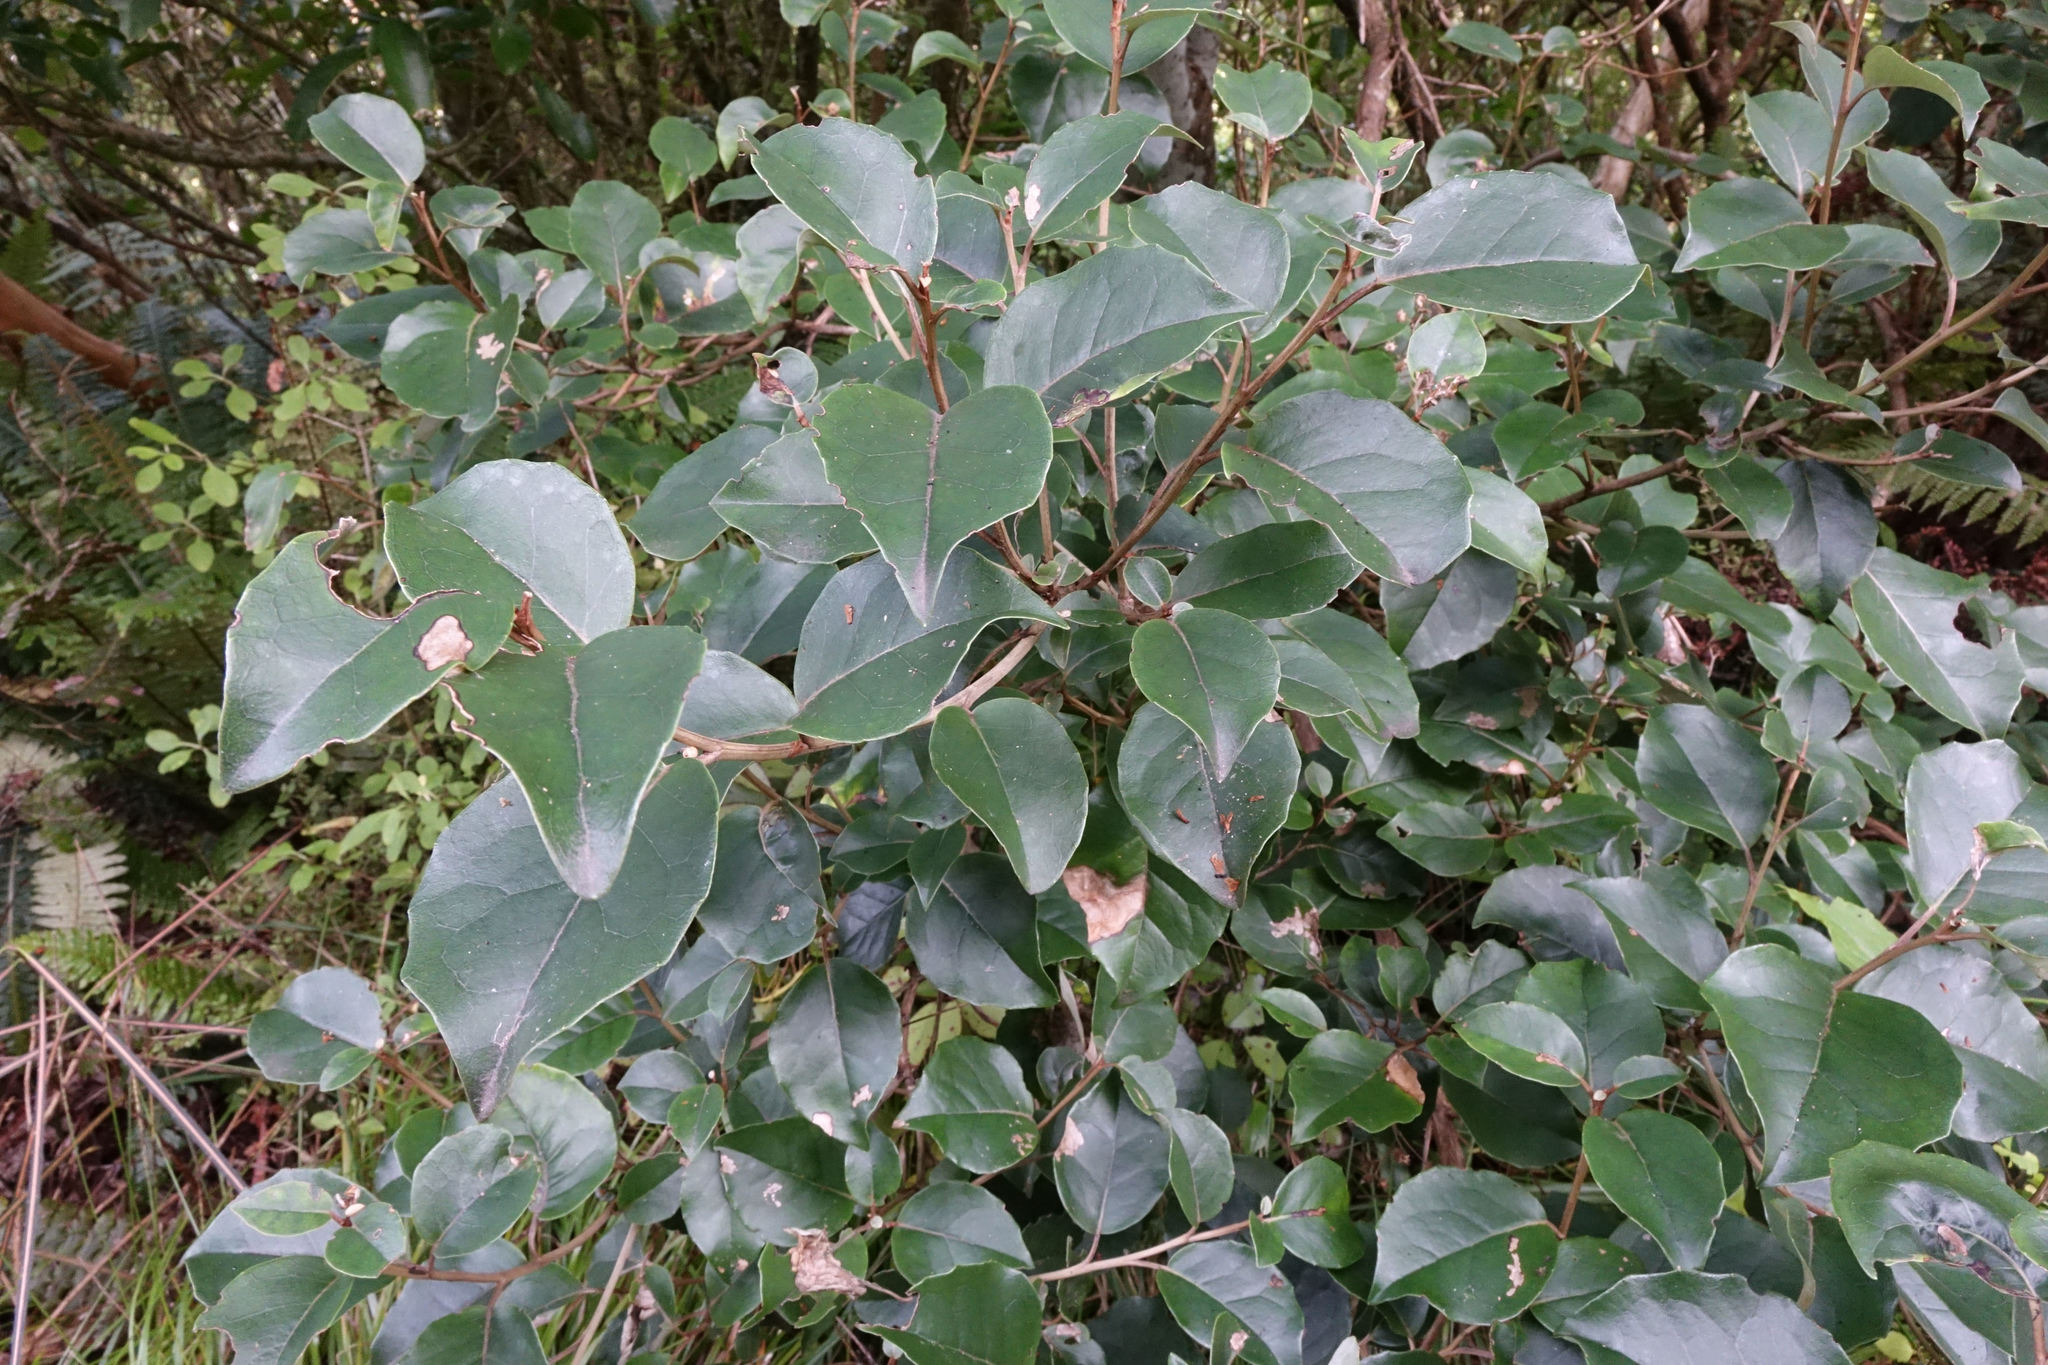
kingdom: Plantae
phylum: Tracheophyta
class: Magnoliopsida
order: Asterales
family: Asteraceae
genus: Olearia
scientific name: Olearia arborescens
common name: Glossy tree daisy
